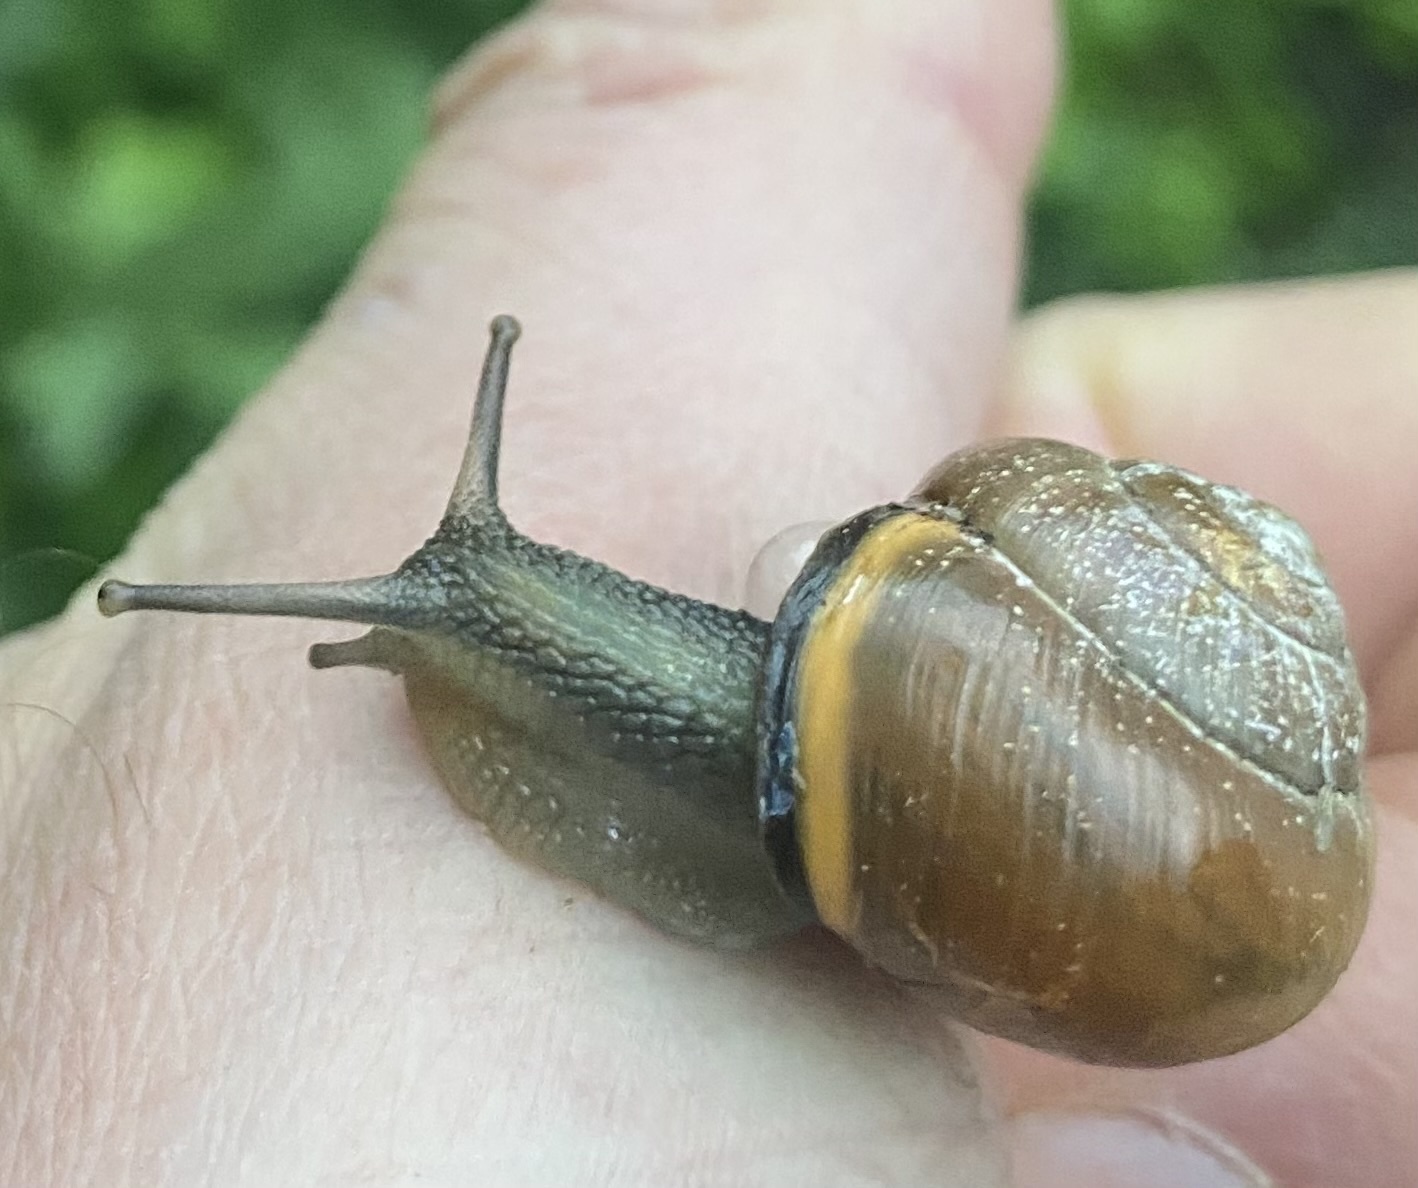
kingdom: Animalia
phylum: Mollusca
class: Gastropoda
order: Stylommatophora
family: Helicidae
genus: Cepaea
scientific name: Cepaea nemoralis
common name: Grovesnail
